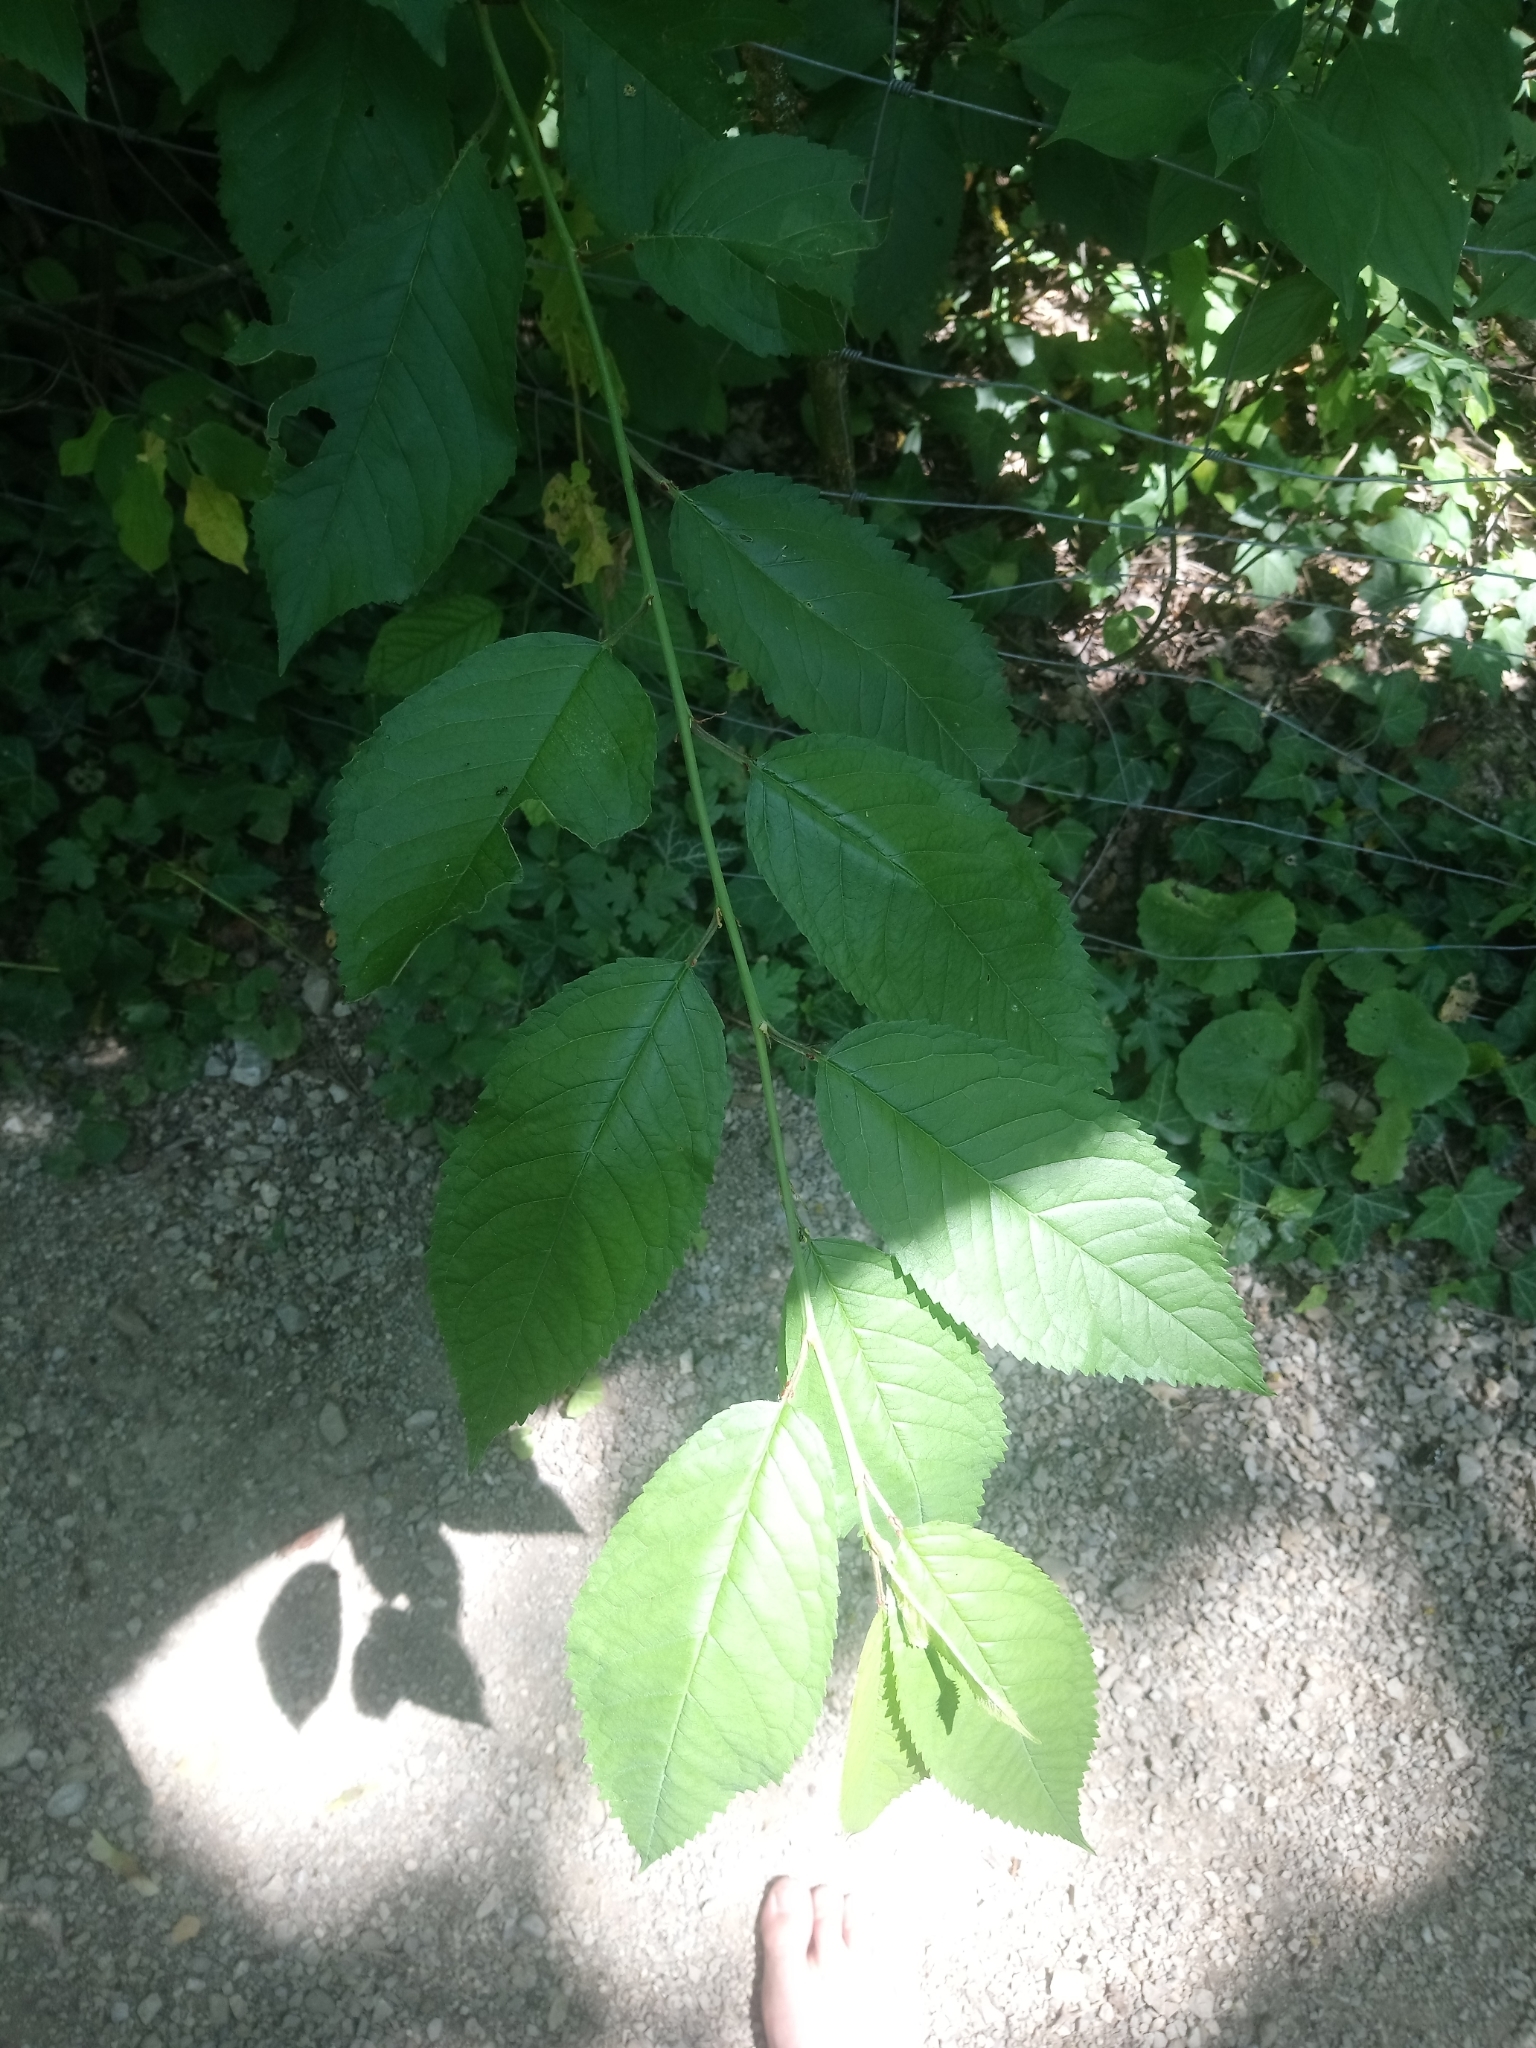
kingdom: Plantae
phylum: Tracheophyta
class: Magnoliopsida
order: Rosales
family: Rosaceae
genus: Prunus
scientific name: Prunus avium
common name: Sweet cherry
